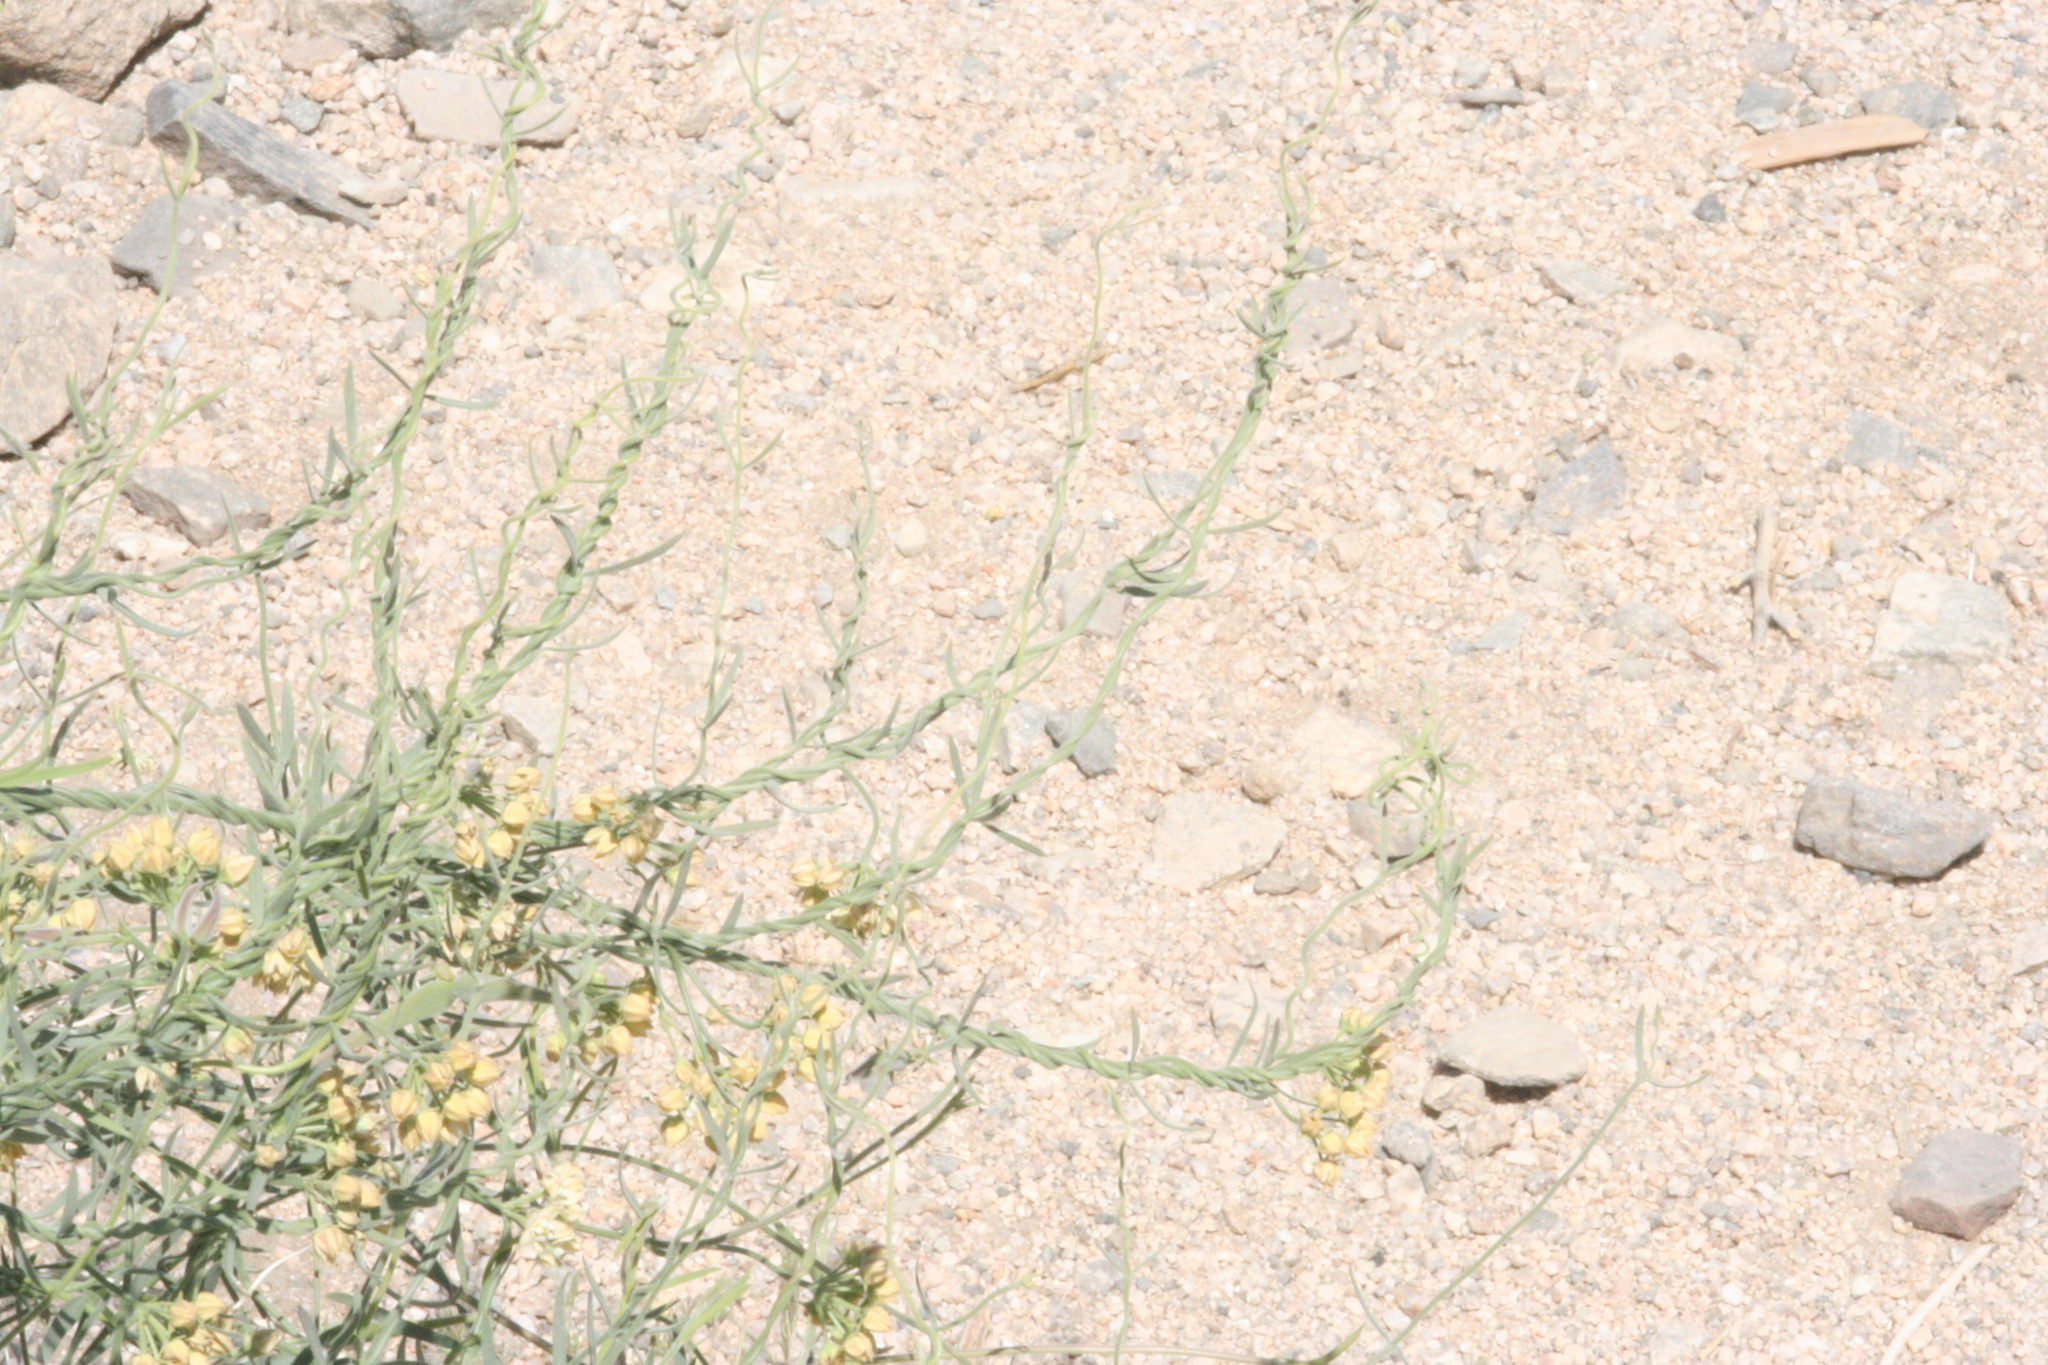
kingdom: Plantae
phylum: Tracheophyta
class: Magnoliopsida
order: Gentianales
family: Apocynaceae
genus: Funastrum
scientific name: Funastrum hirtellum
